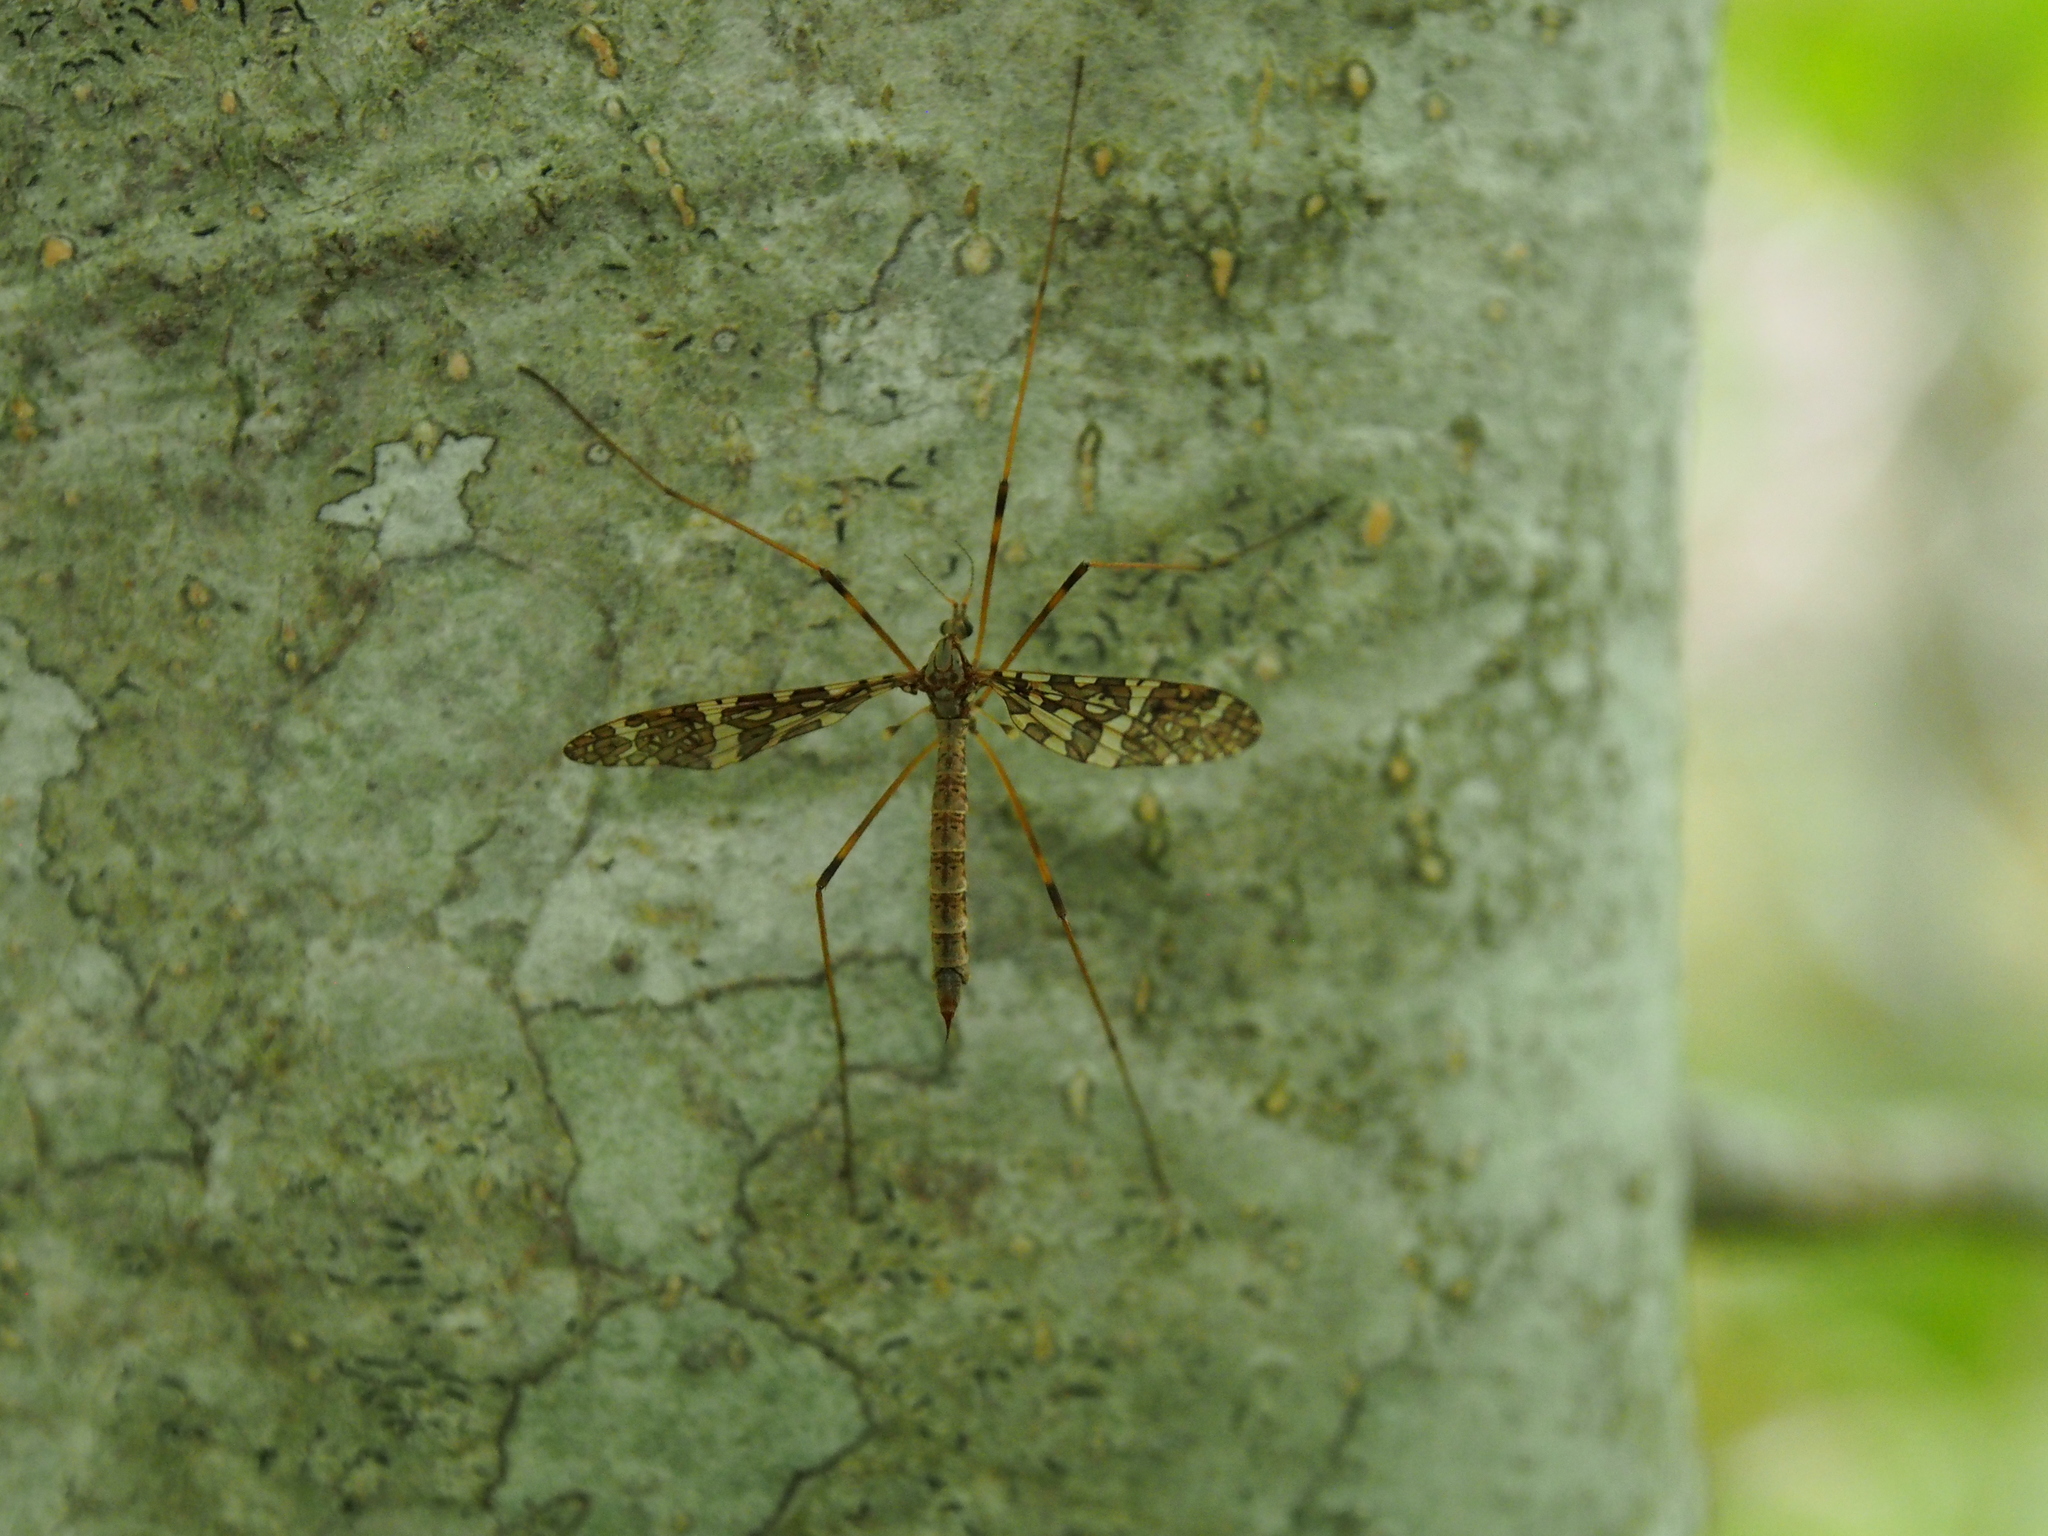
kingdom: Animalia
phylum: Arthropoda
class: Insecta
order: Diptera
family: Limoniidae
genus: Epiphragma
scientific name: Epiphragma fasciapenne
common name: Band-winged crane fly
